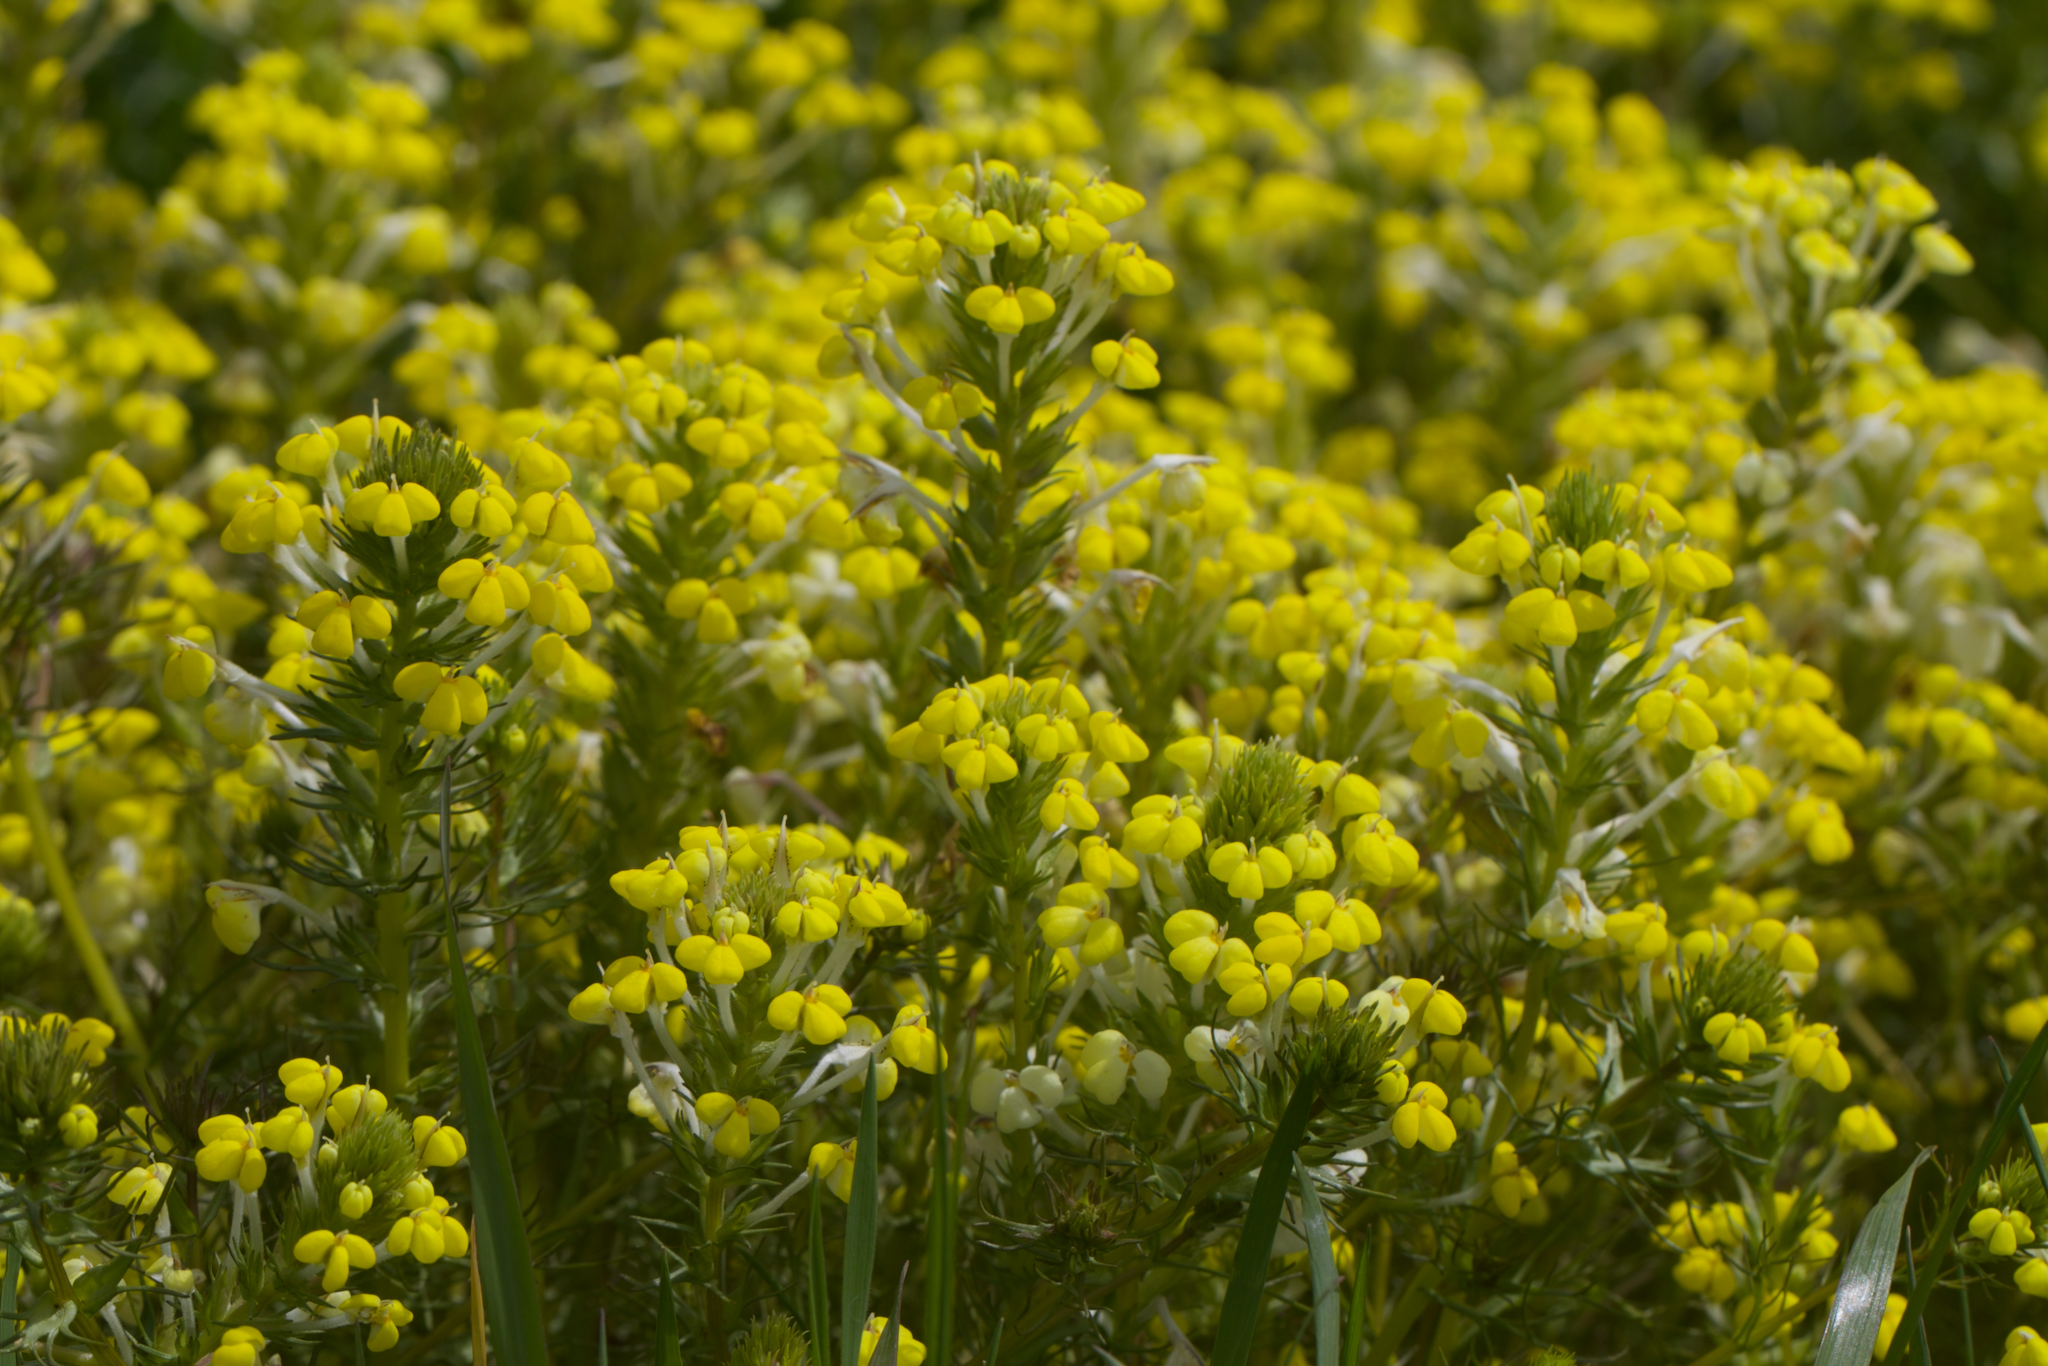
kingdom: Plantae
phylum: Tracheophyta
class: Magnoliopsida
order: Lamiales
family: Orobanchaceae
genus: Triphysaria
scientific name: Triphysaria versicolor
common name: Bearded false owl-clover
